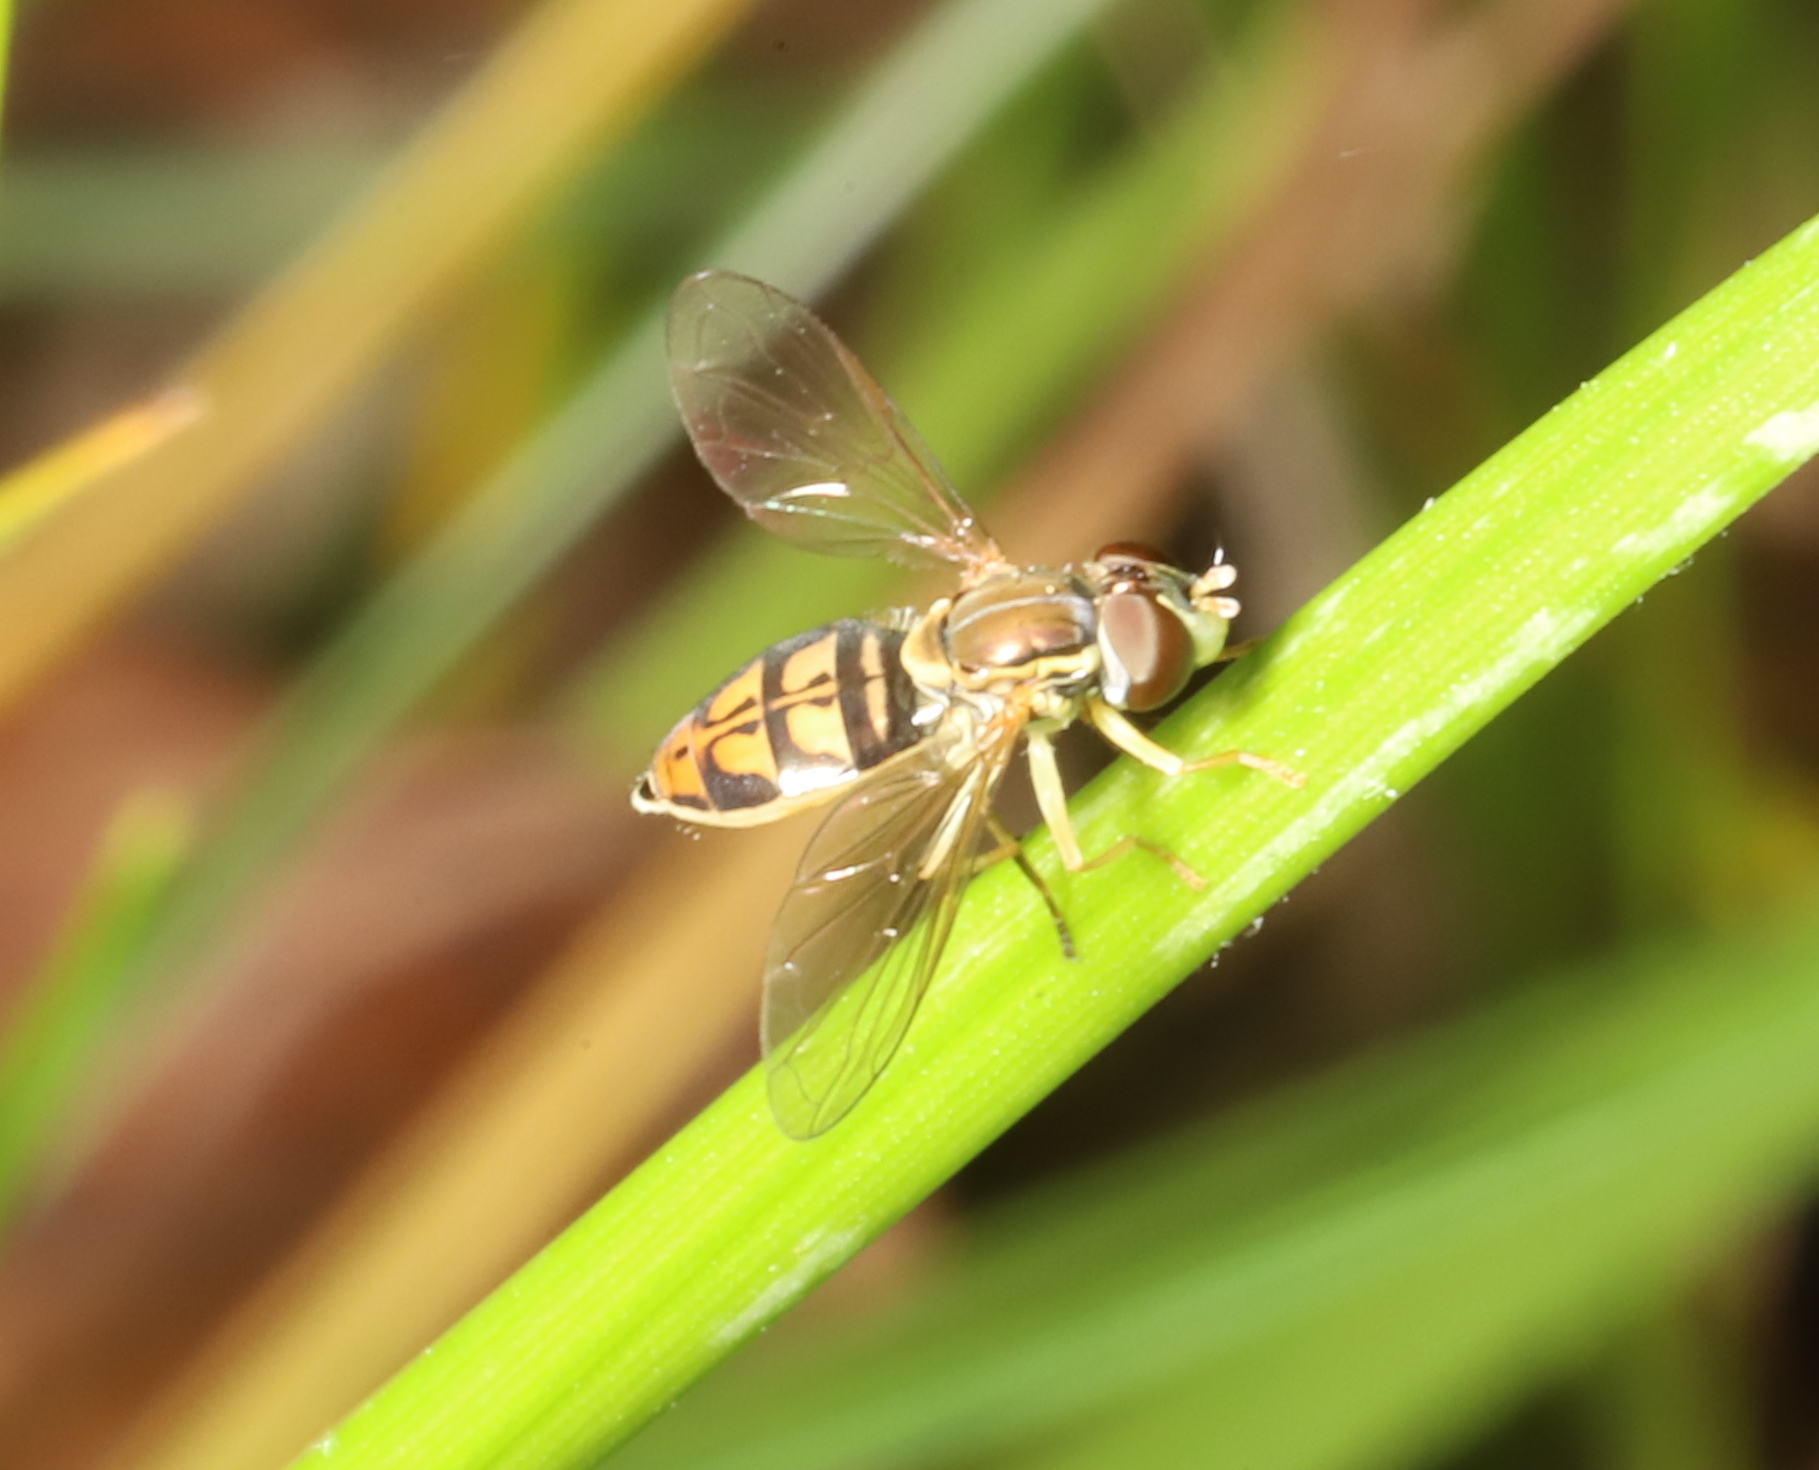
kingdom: Animalia
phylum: Arthropoda
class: Insecta
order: Diptera
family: Syrphidae
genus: Toxomerus
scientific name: Toxomerus marginatus
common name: Syrphid fly
